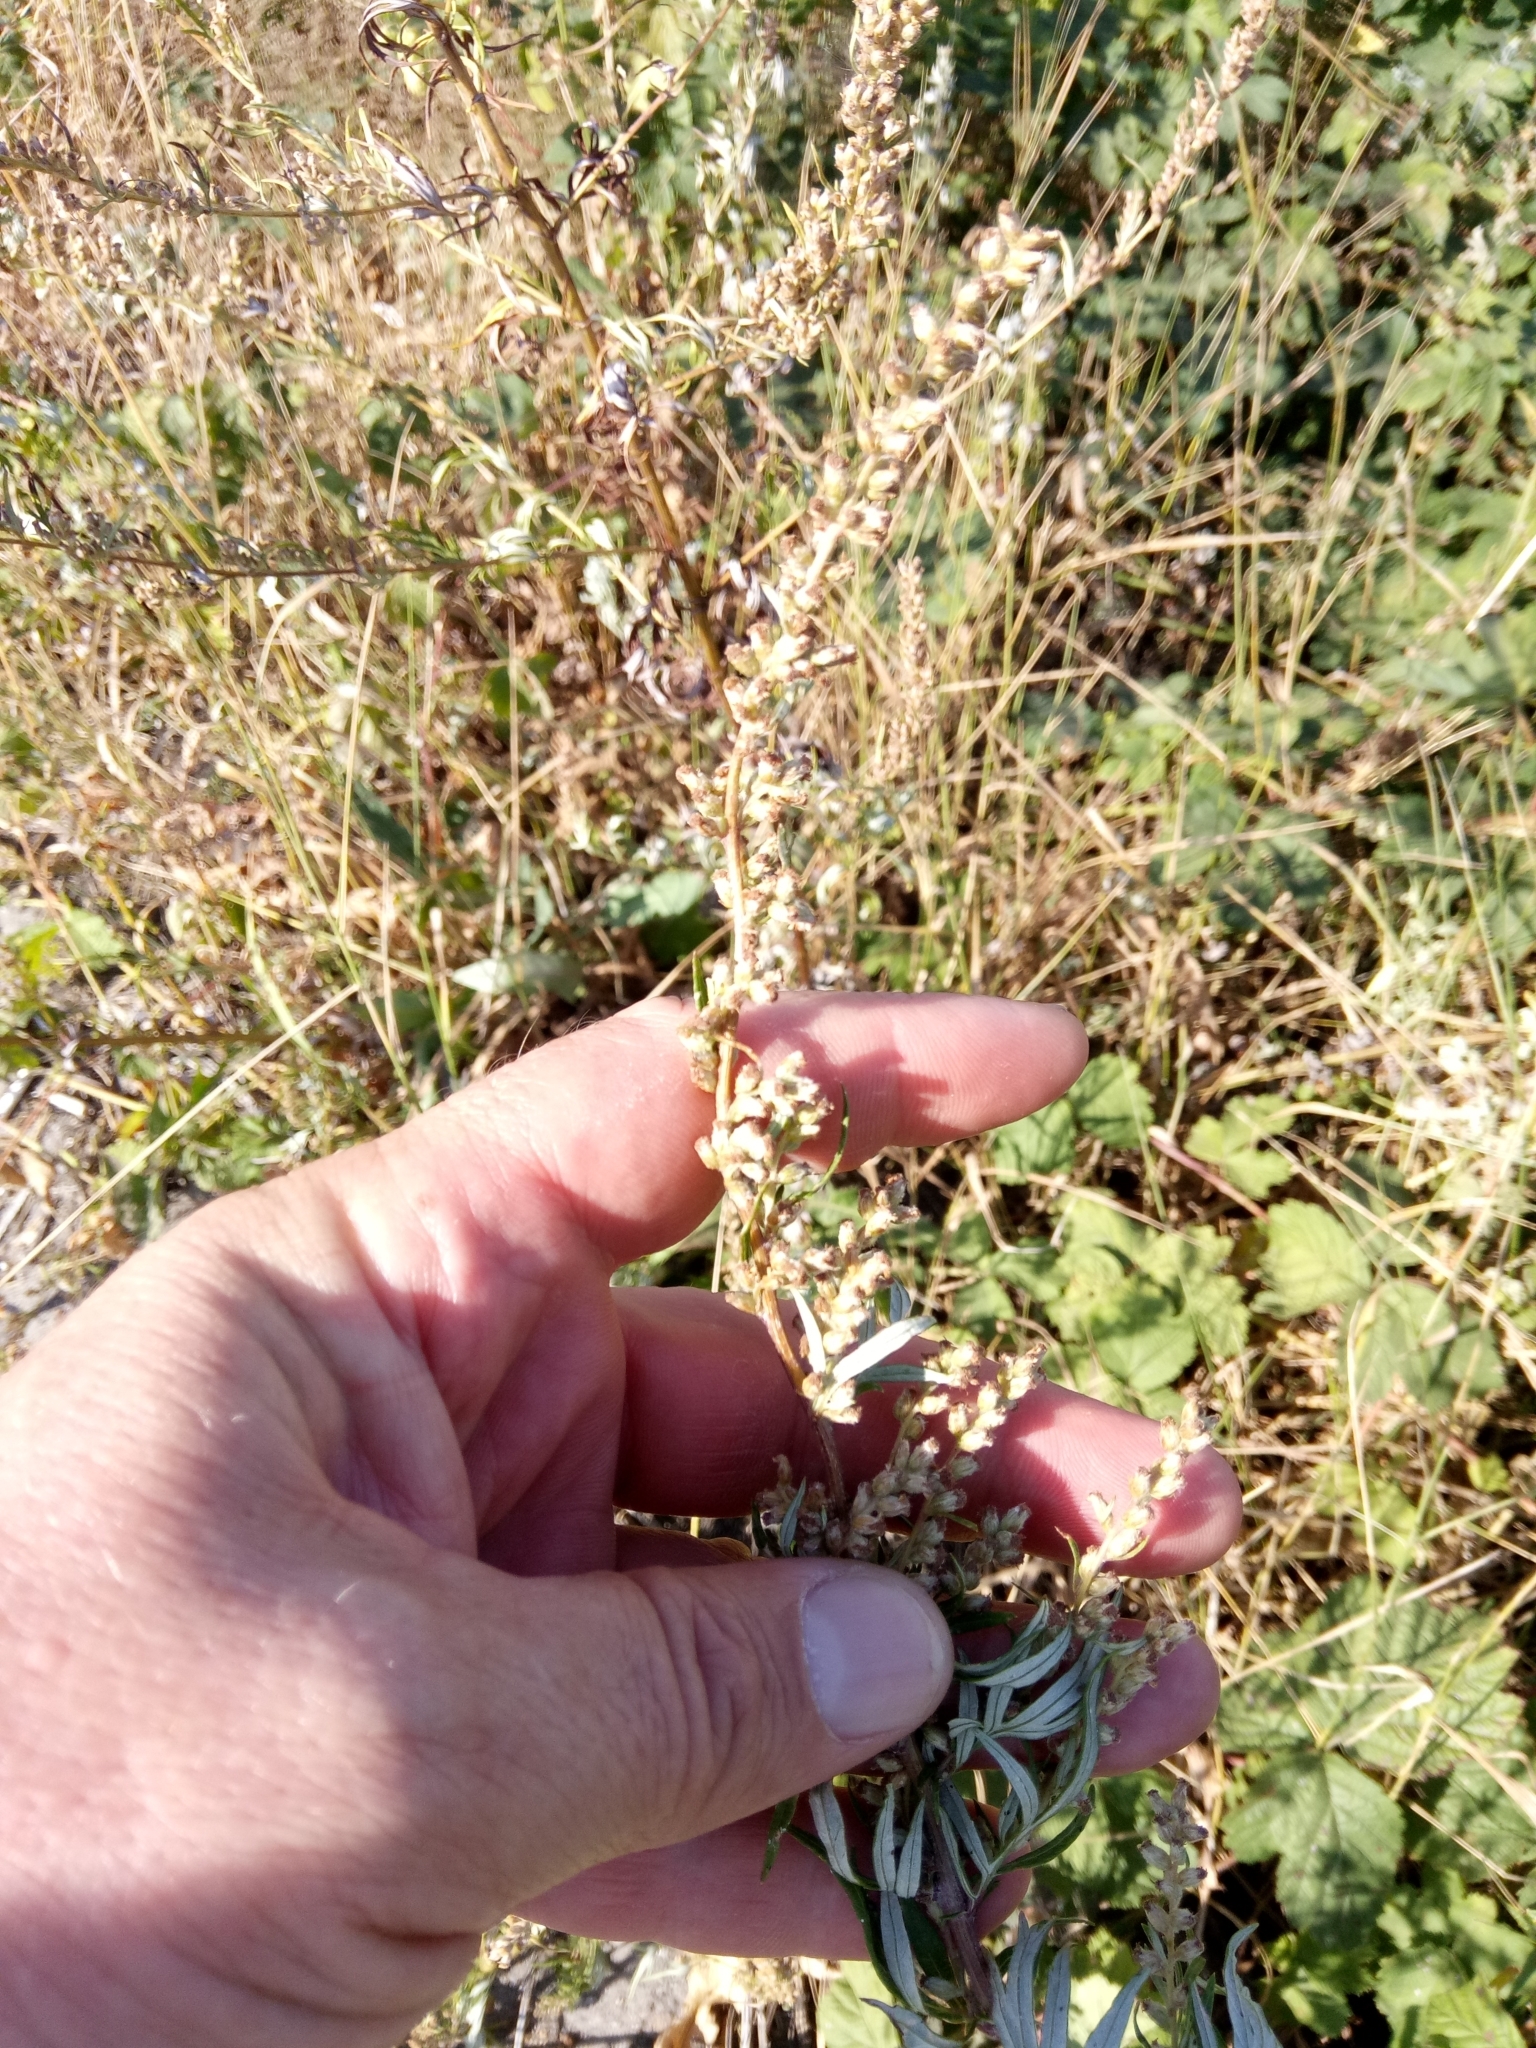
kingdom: Plantae
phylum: Tracheophyta
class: Magnoliopsida
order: Asterales
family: Asteraceae
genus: Artemisia
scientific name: Artemisia vulgaris
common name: Mugwort
